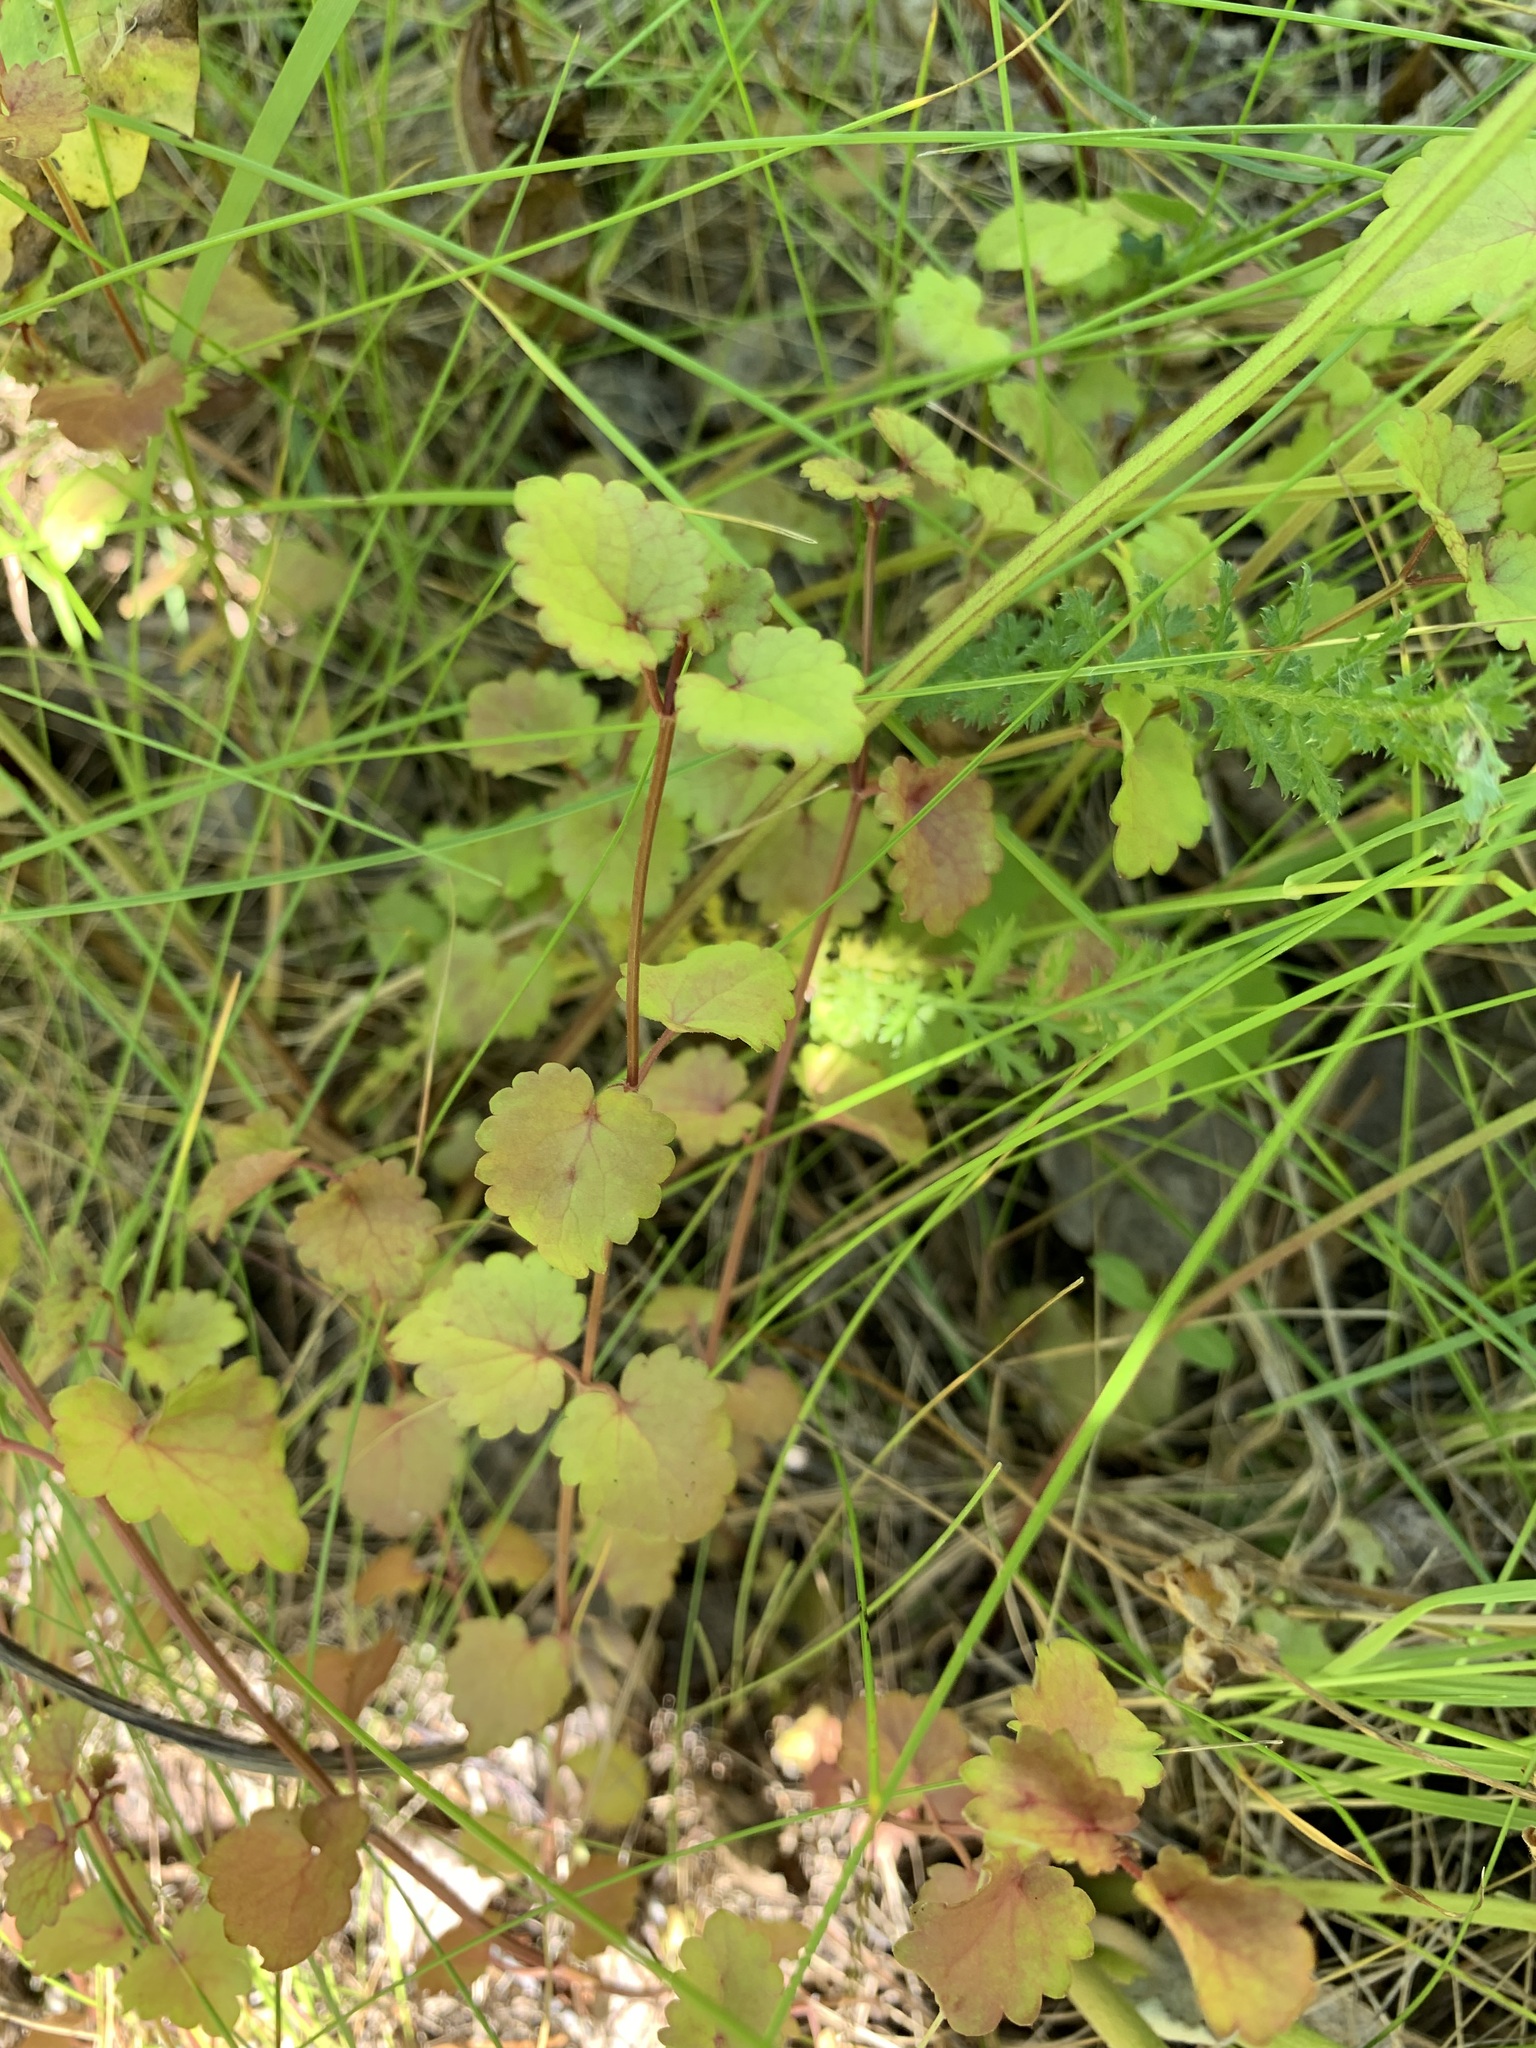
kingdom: Plantae
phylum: Tracheophyta
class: Magnoliopsida
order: Lamiales
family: Lamiaceae
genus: Glechoma
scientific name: Glechoma hederacea
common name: Ground ivy
